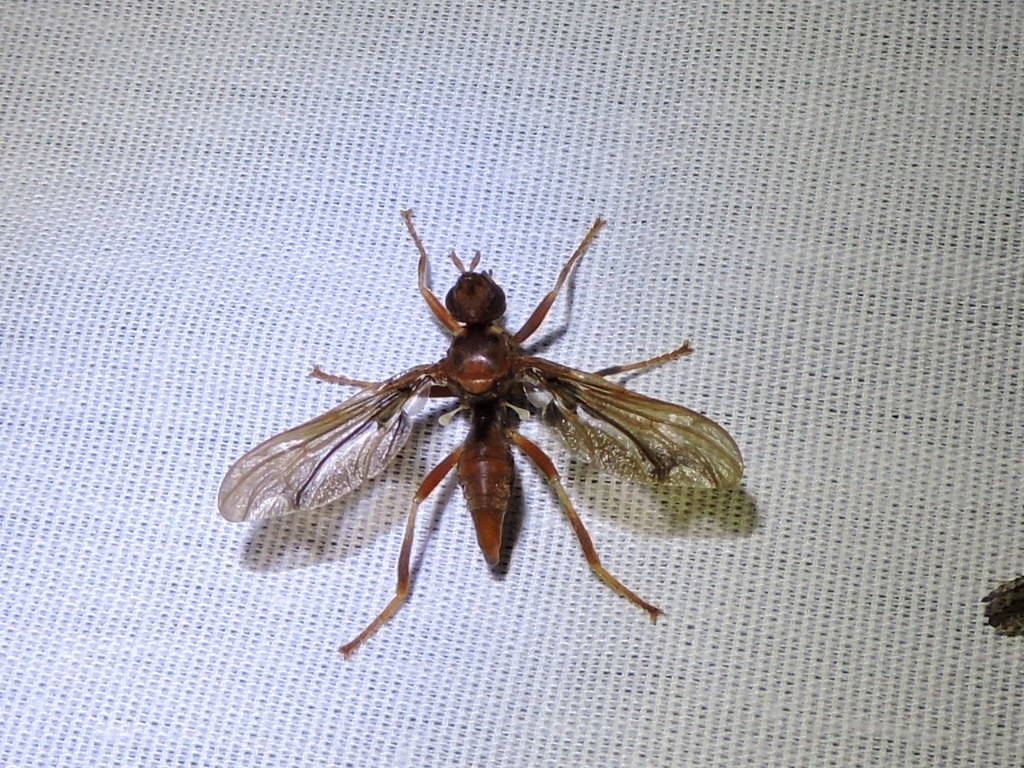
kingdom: Animalia
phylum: Arthropoda
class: Insecta
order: Diptera
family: Pyrgotidae
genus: Pyrgota
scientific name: Pyrgota undata
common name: Waved light fly
